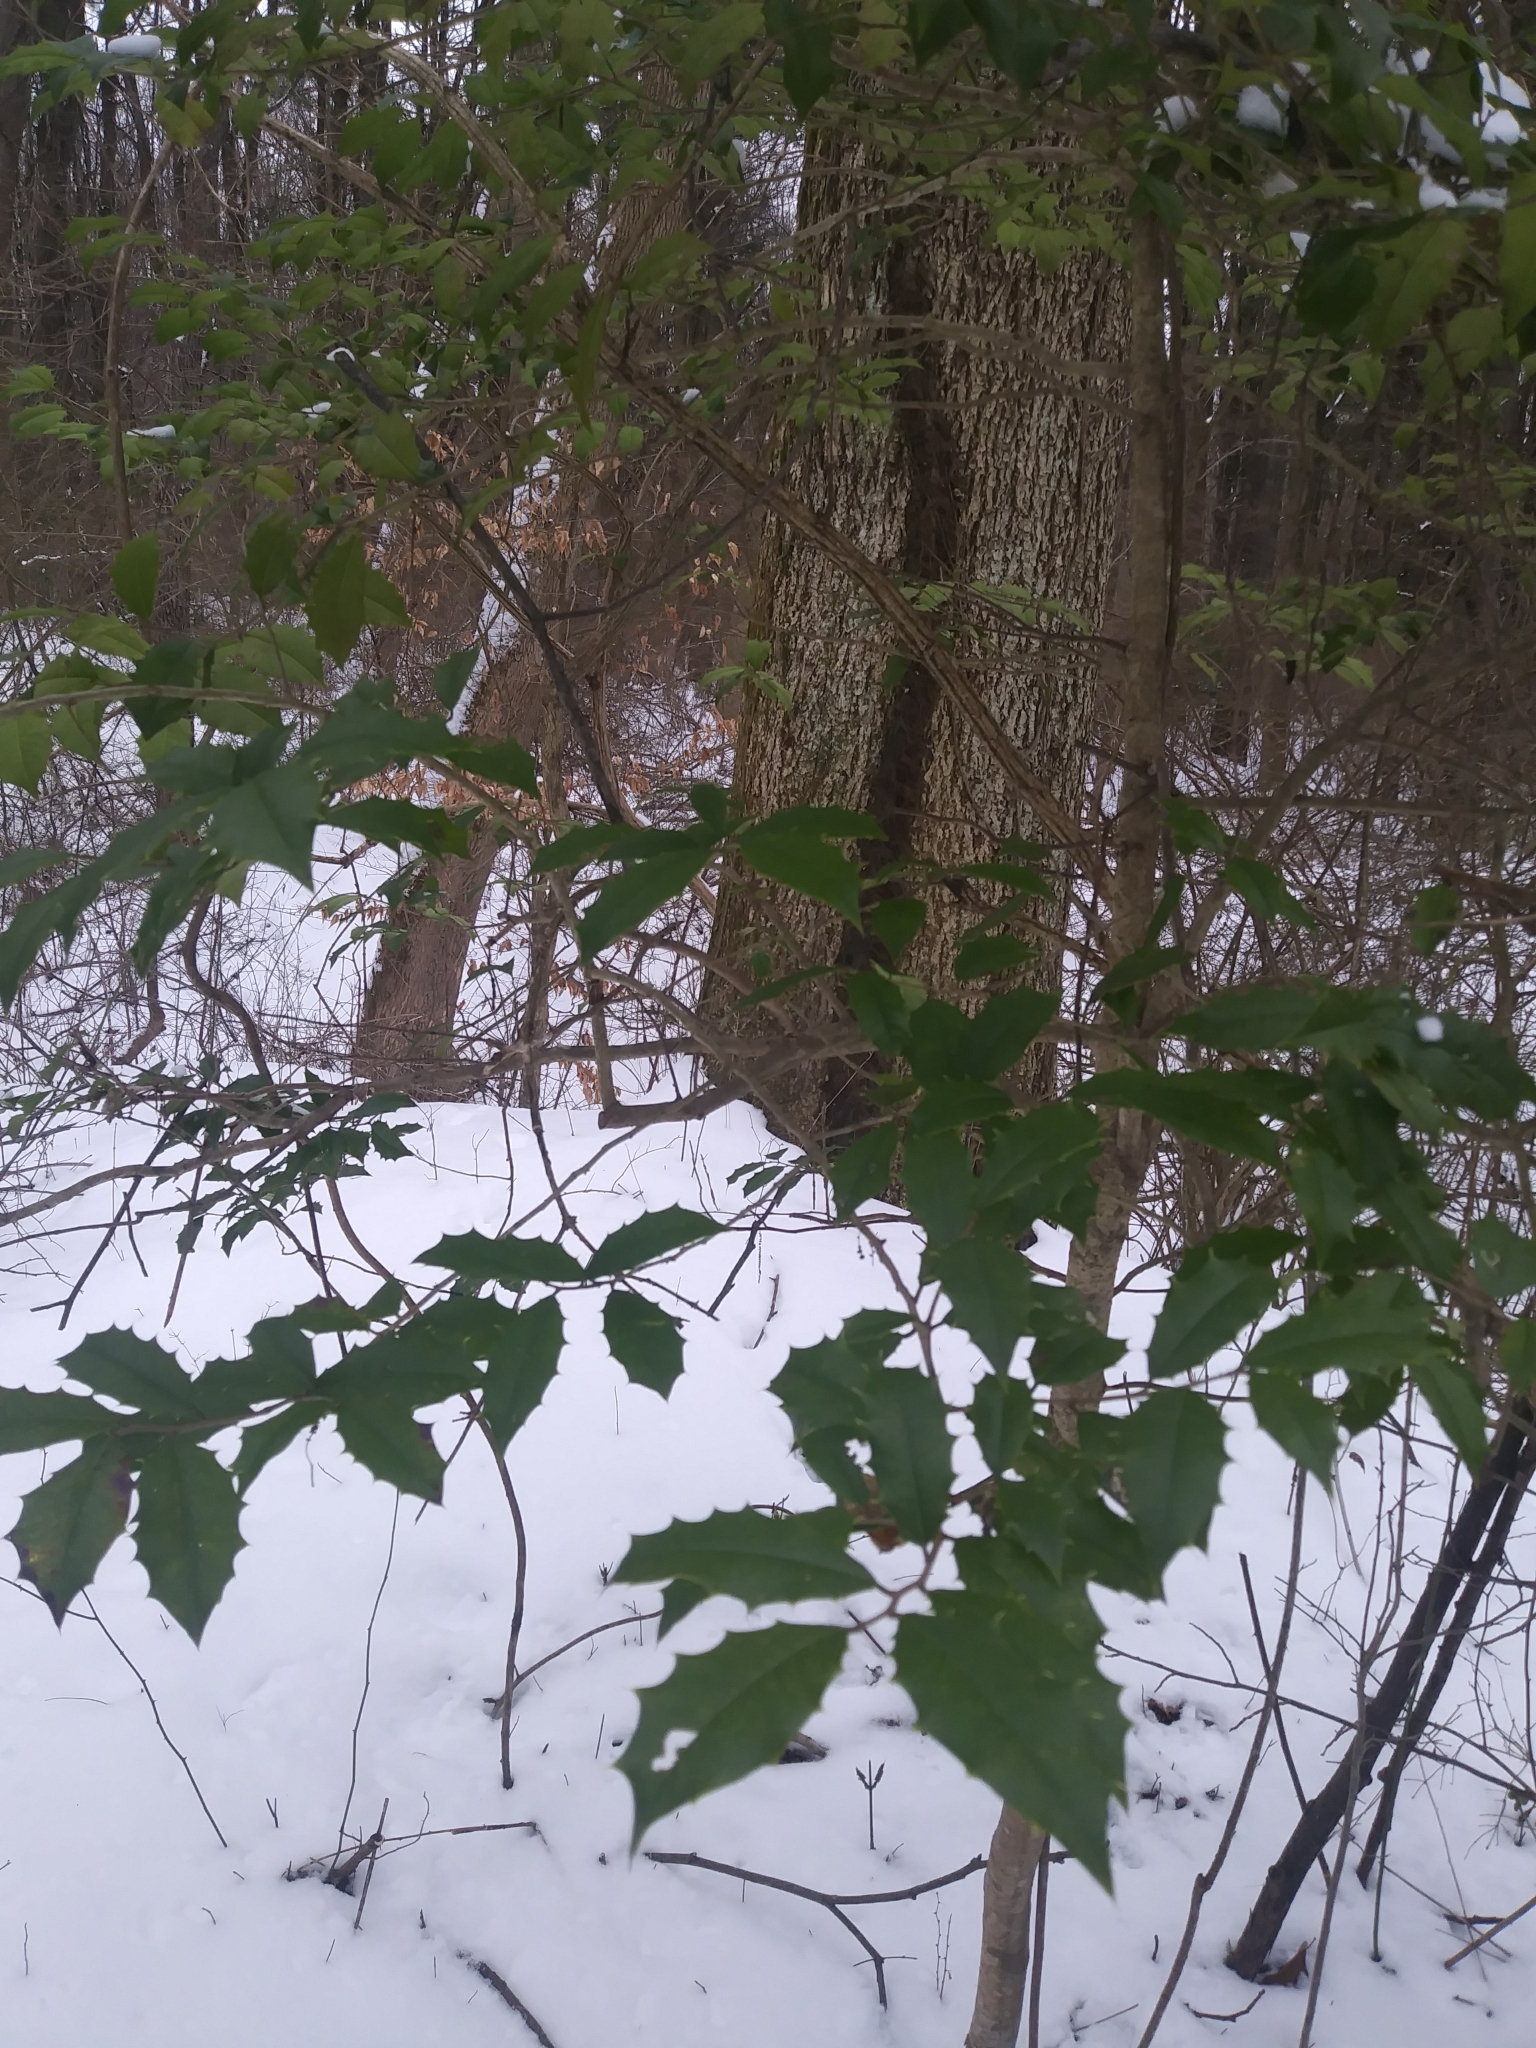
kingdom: Plantae
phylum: Tracheophyta
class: Magnoliopsida
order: Aquifoliales
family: Aquifoliaceae
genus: Ilex
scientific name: Ilex opaca
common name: American holly
